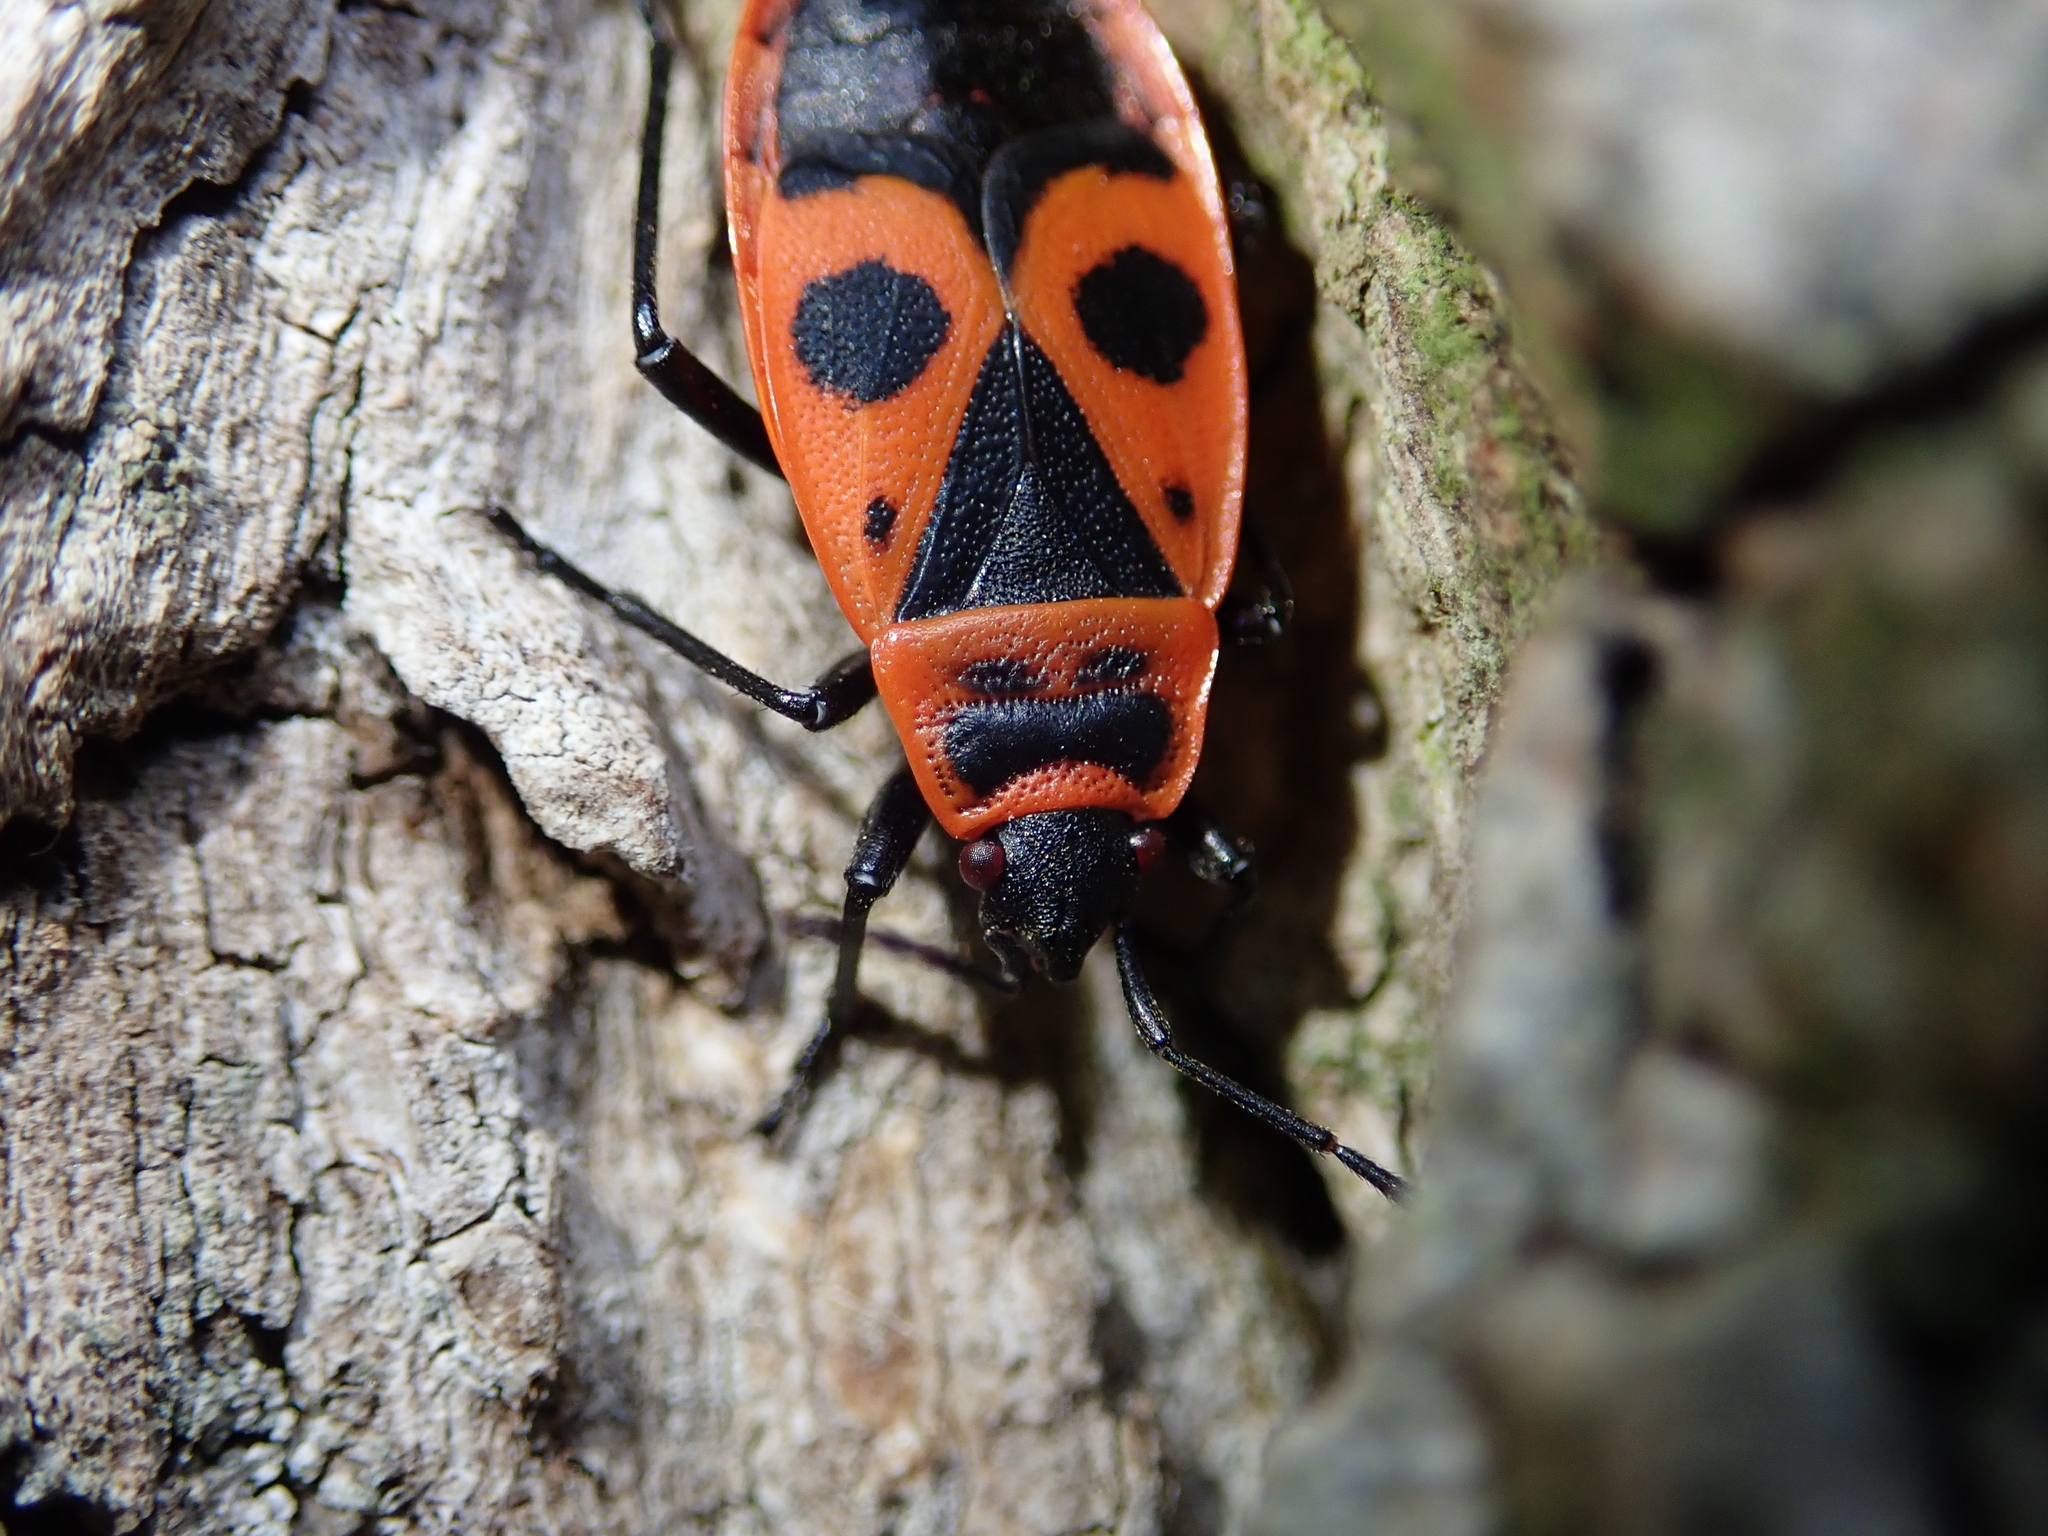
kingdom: Animalia
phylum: Arthropoda
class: Insecta
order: Hemiptera
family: Pyrrhocoridae
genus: Pyrrhocoris
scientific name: Pyrrhocoris apterus
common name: Firebug
